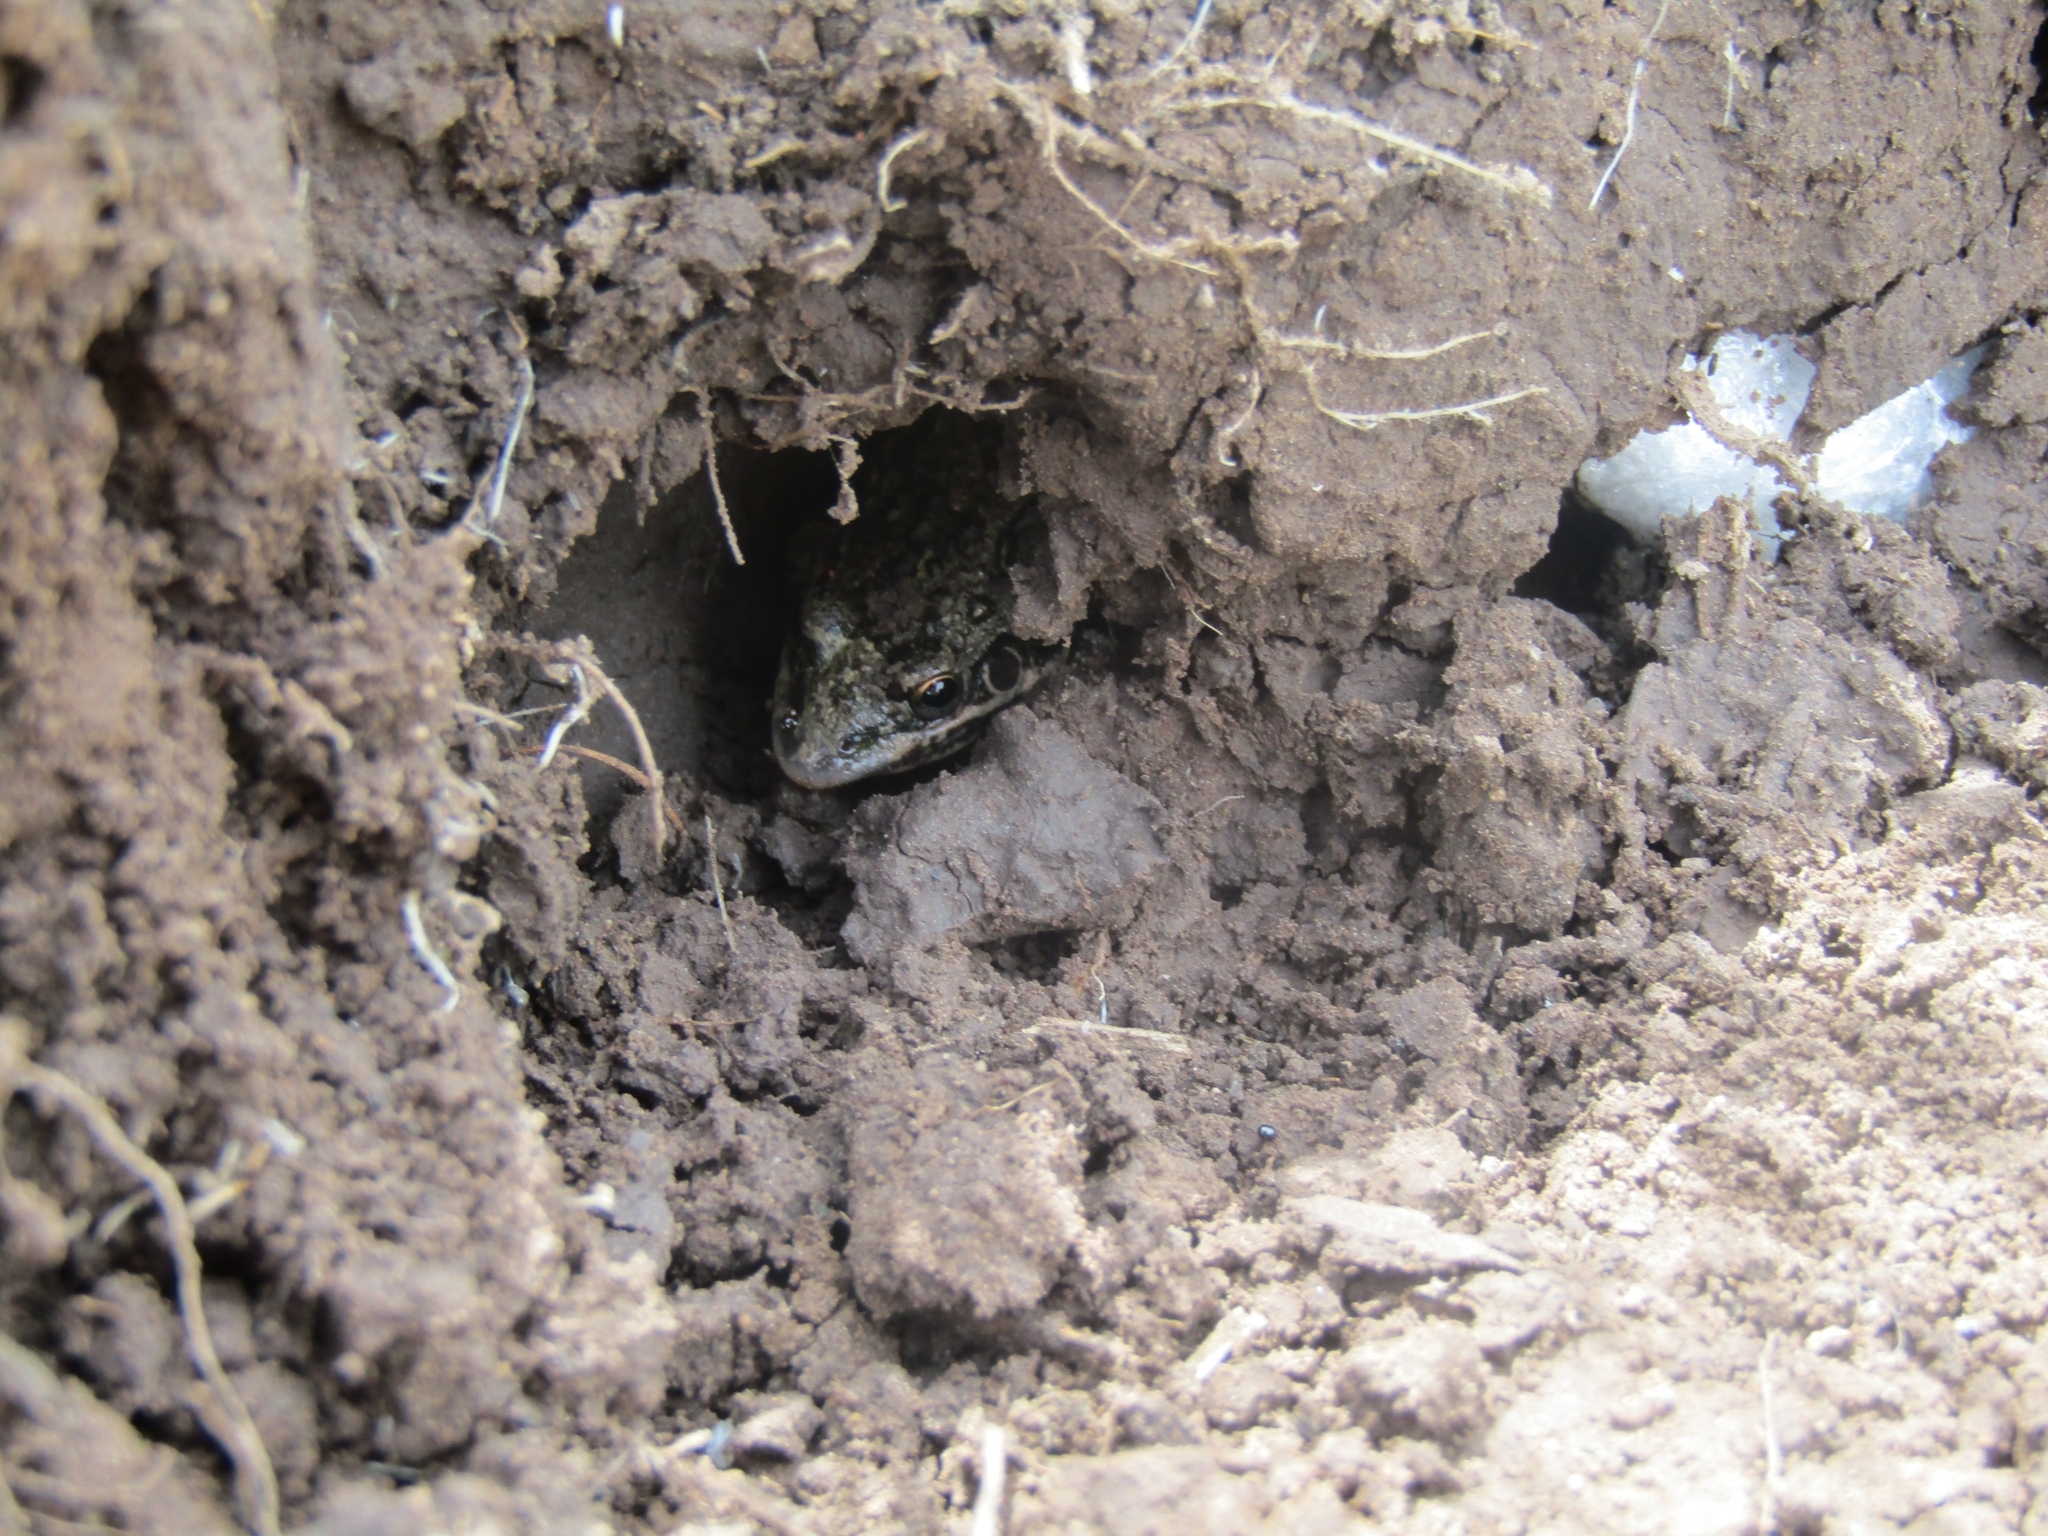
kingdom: Animalia
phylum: Chordata
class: Amphibia
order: Anura
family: Leptodactylidae
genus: Leptodactylus
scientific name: Leptodactylus latinasus
